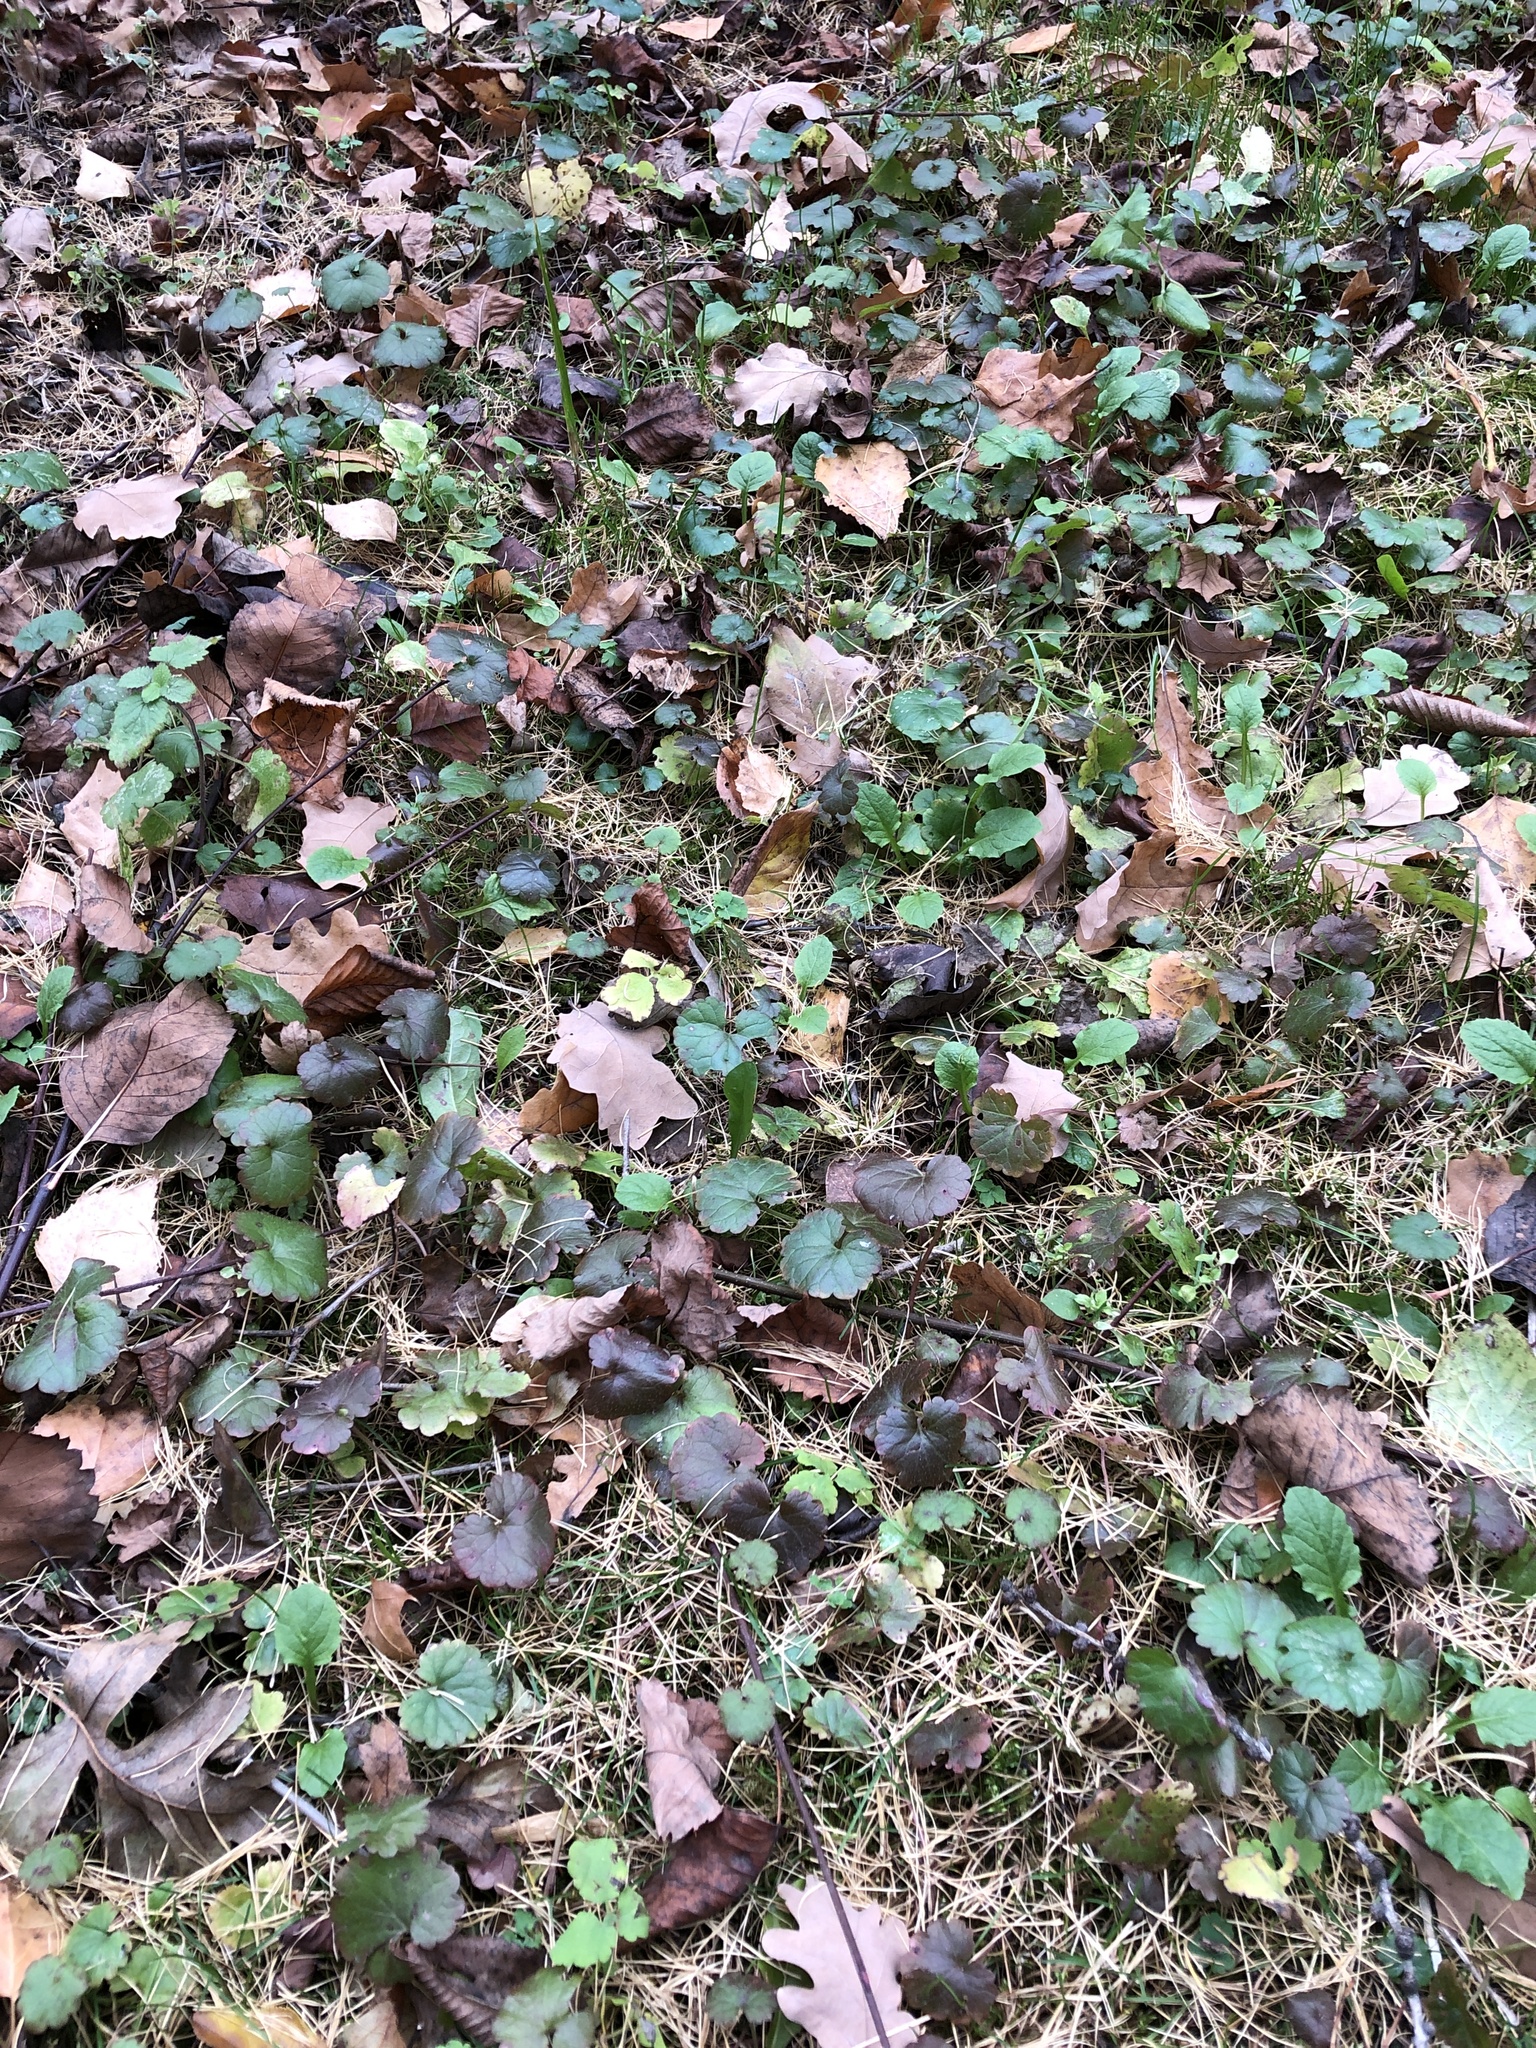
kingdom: Plantae
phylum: Tracheophyta
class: Magnoliopsida
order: Lamiales
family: Lamiaceae
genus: Glechoma
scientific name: Glechoma hederacea
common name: Ground ivy
